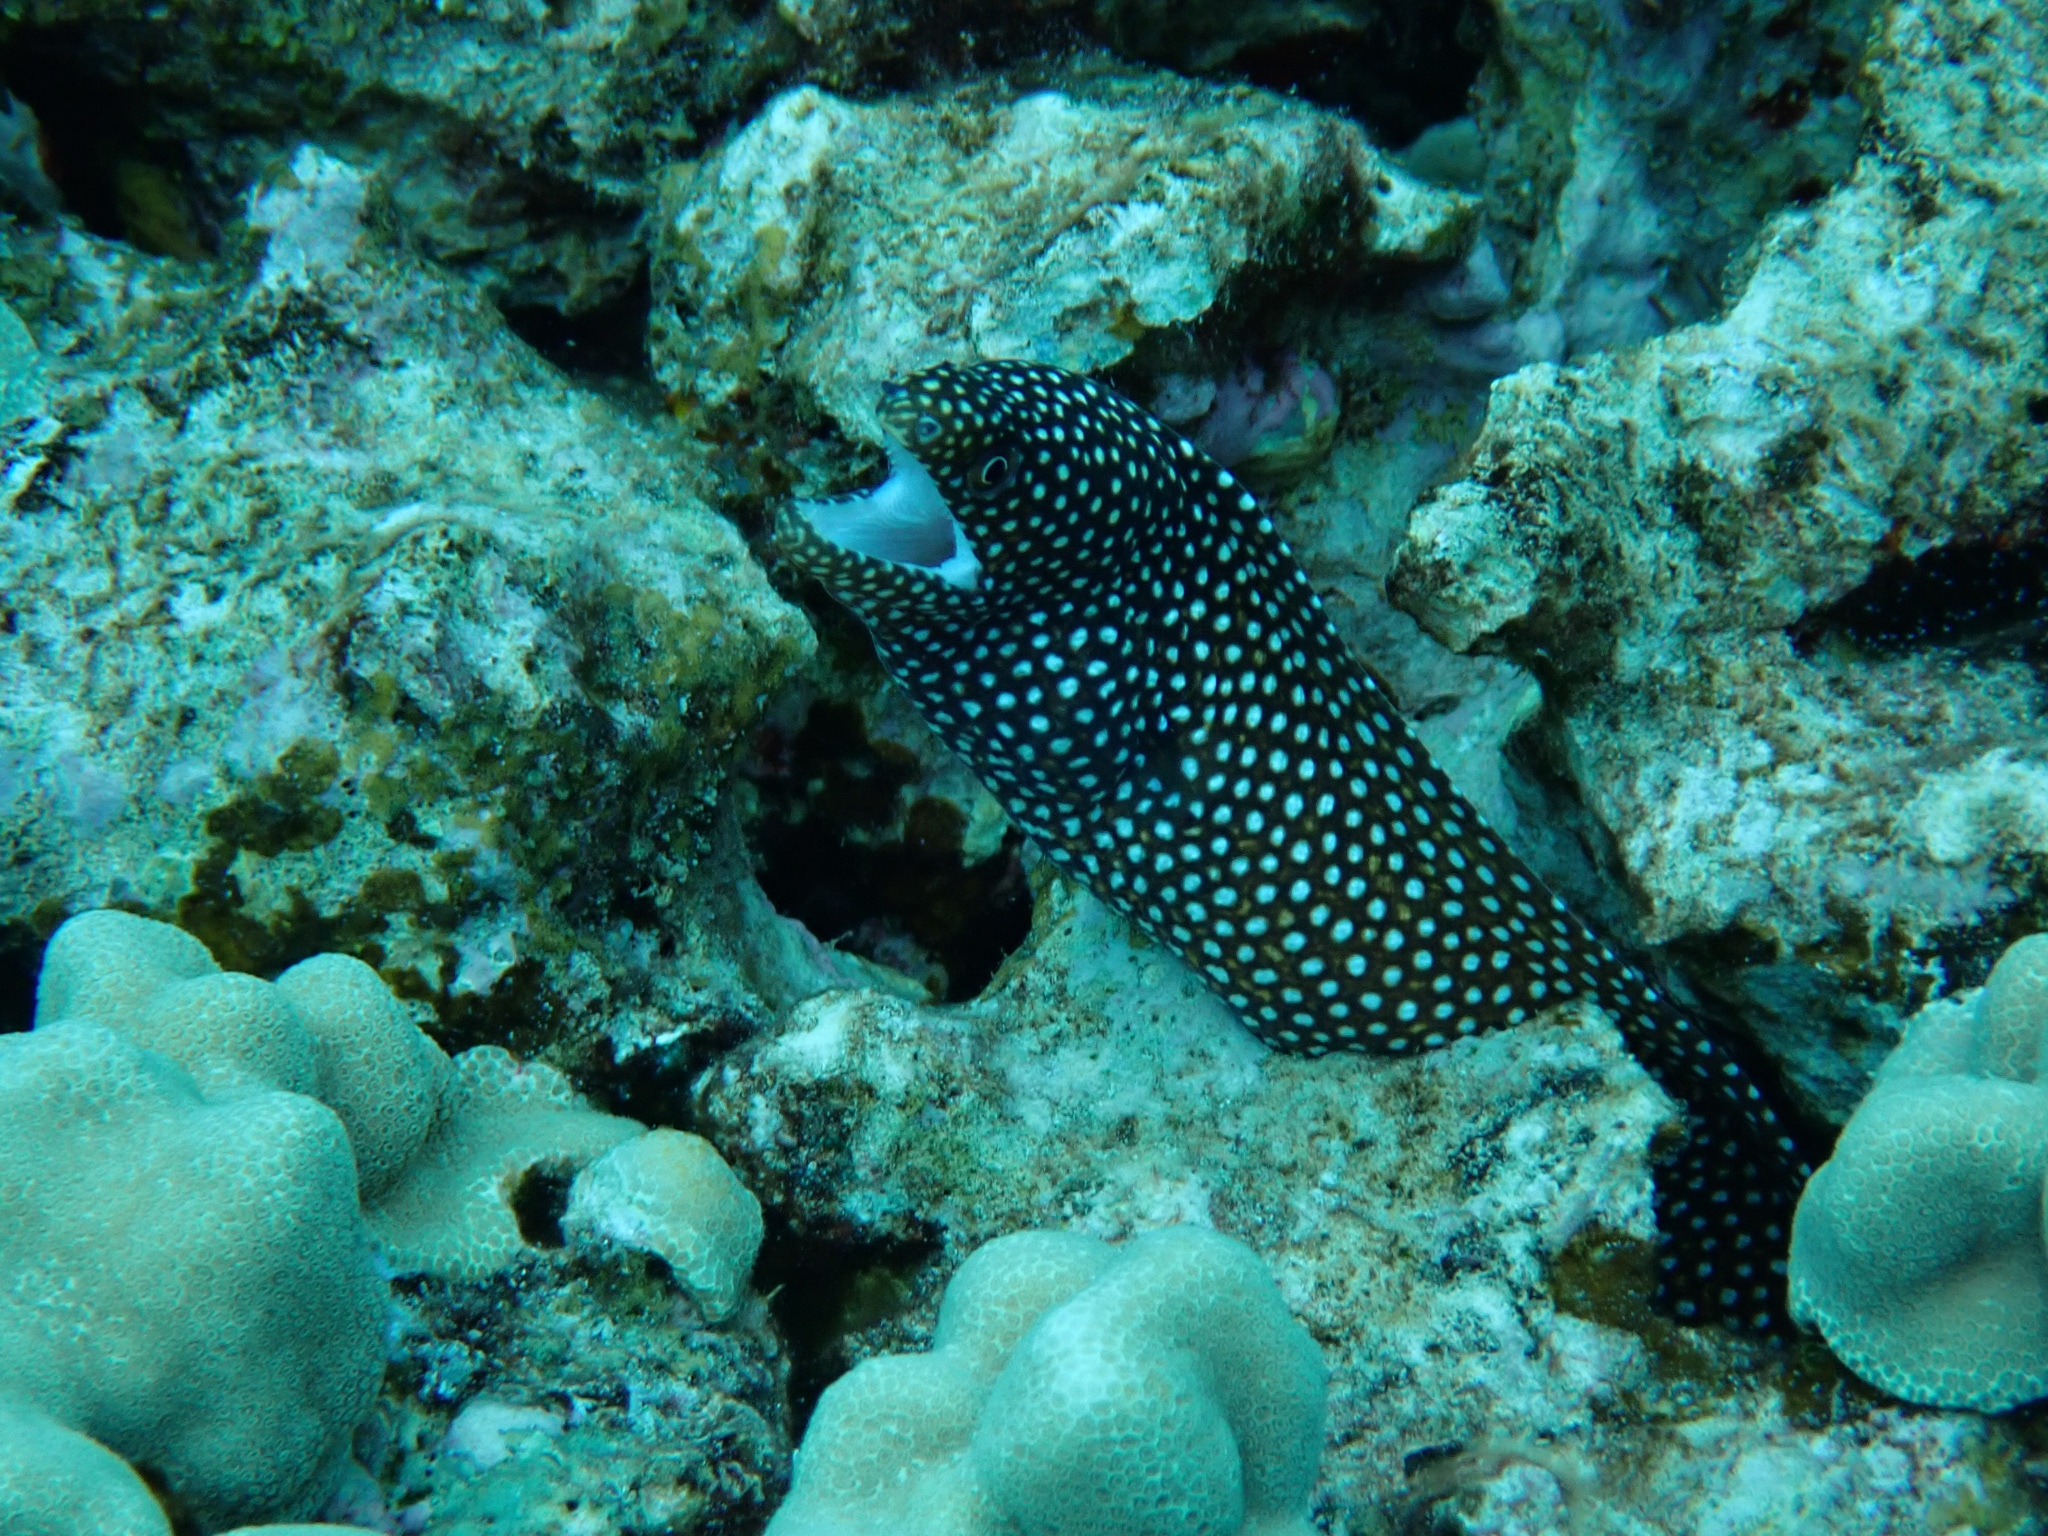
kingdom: Animalia
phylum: Chordata
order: Anguilliformes
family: Muraenidae
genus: Gymnothorax
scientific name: Gymnothorax meleagris
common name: Guineafowl moray
